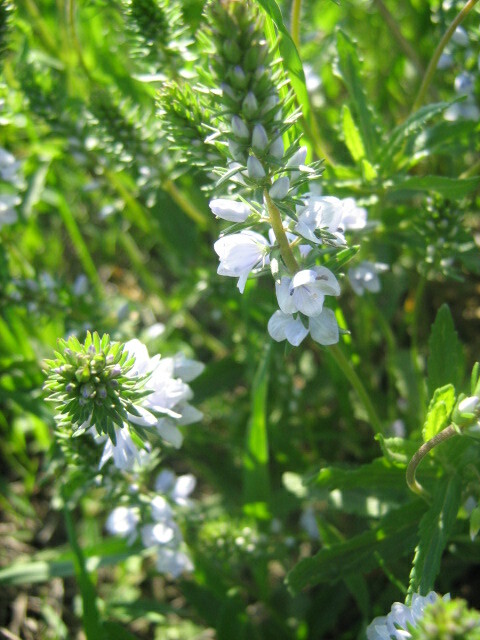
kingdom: Plantae
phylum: Tracheophyta
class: Magnoliopsida
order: Lamiales
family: Plantaginaceae
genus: Veronica
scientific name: Veronica prostrata
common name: Prostrate speedwell
